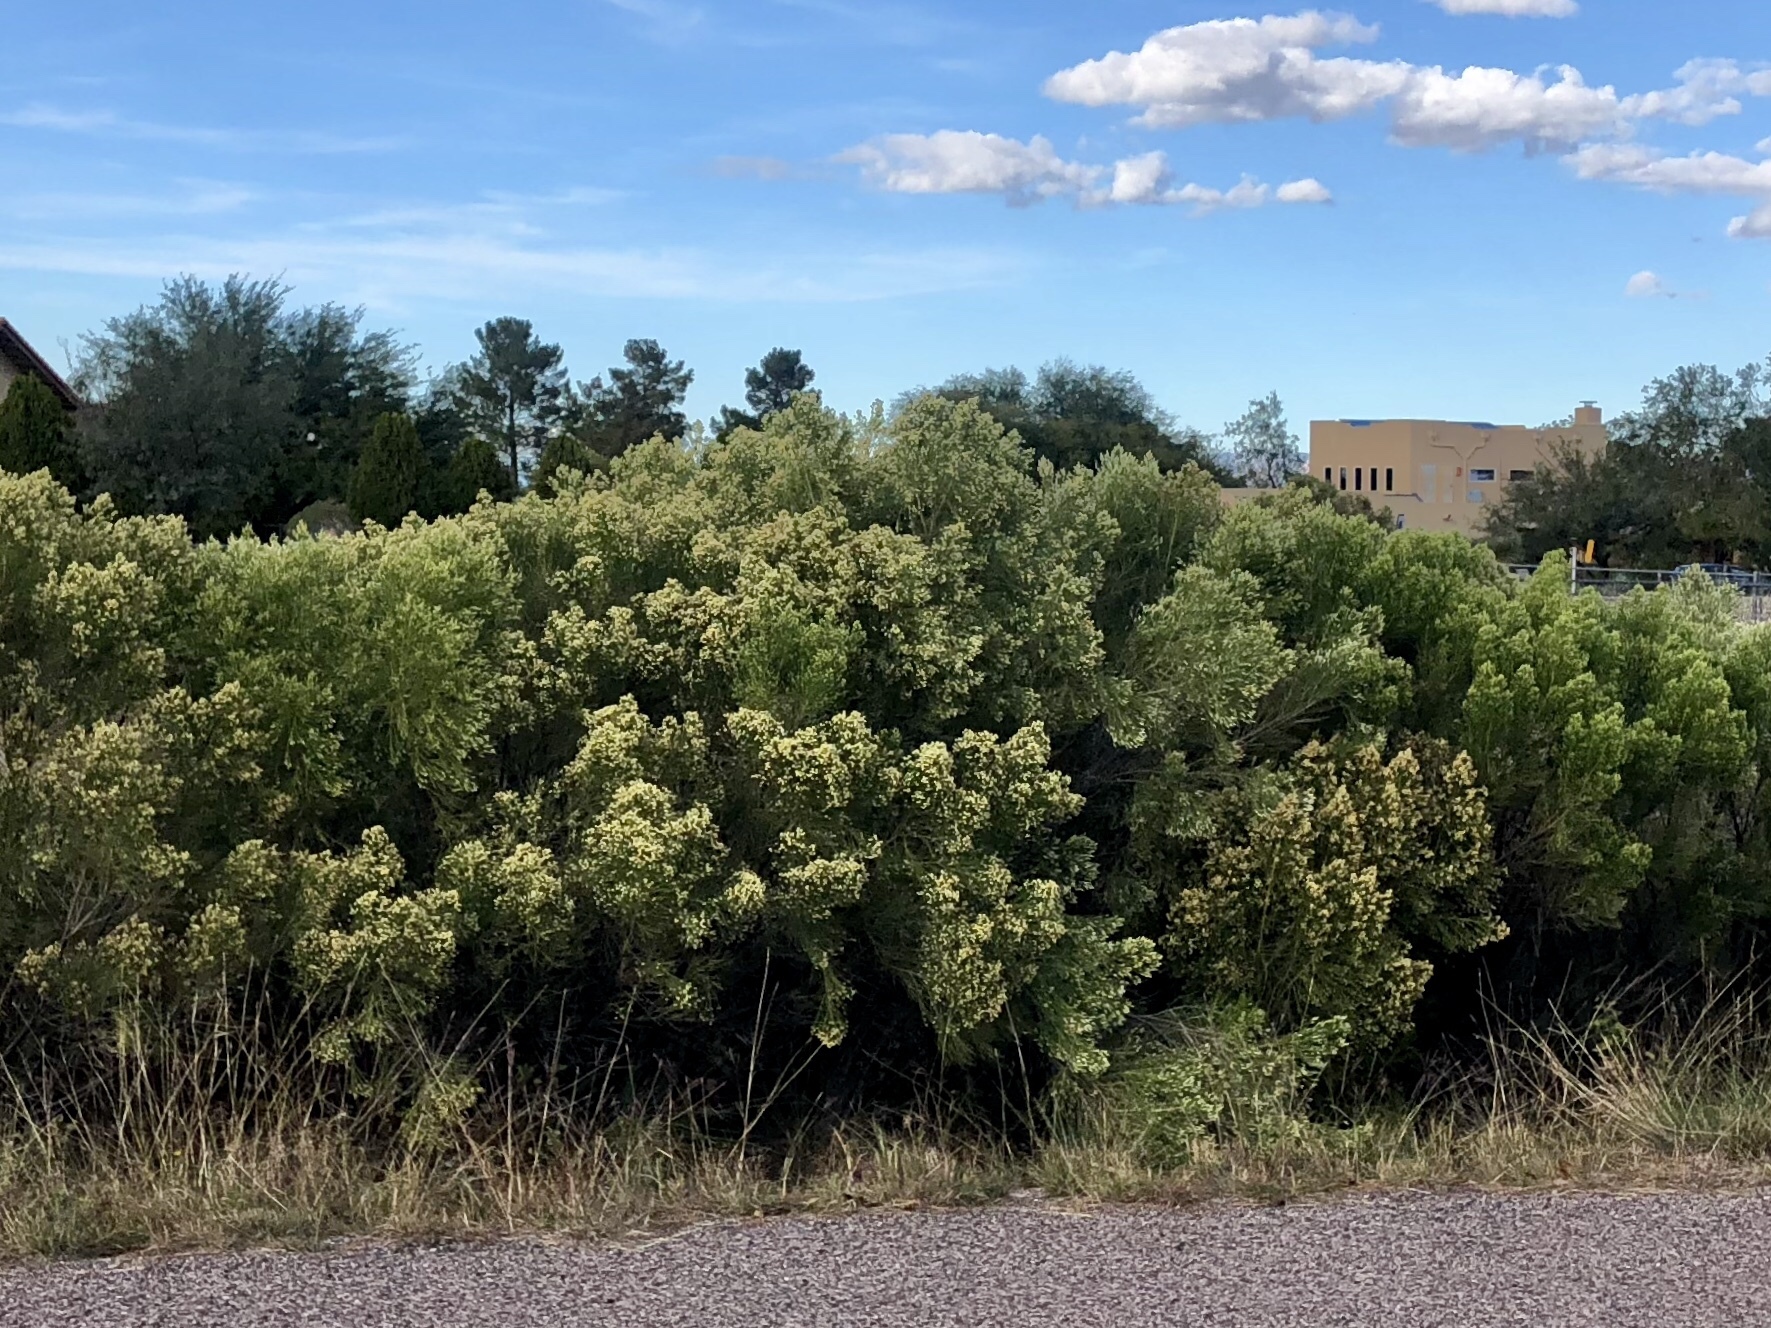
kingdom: Plantae
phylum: Tracheophyta
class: Magnoliopsida
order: Asterales
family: Asteraceae
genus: Baccharis
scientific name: Baccharis sarothroides
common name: Desert-broom
